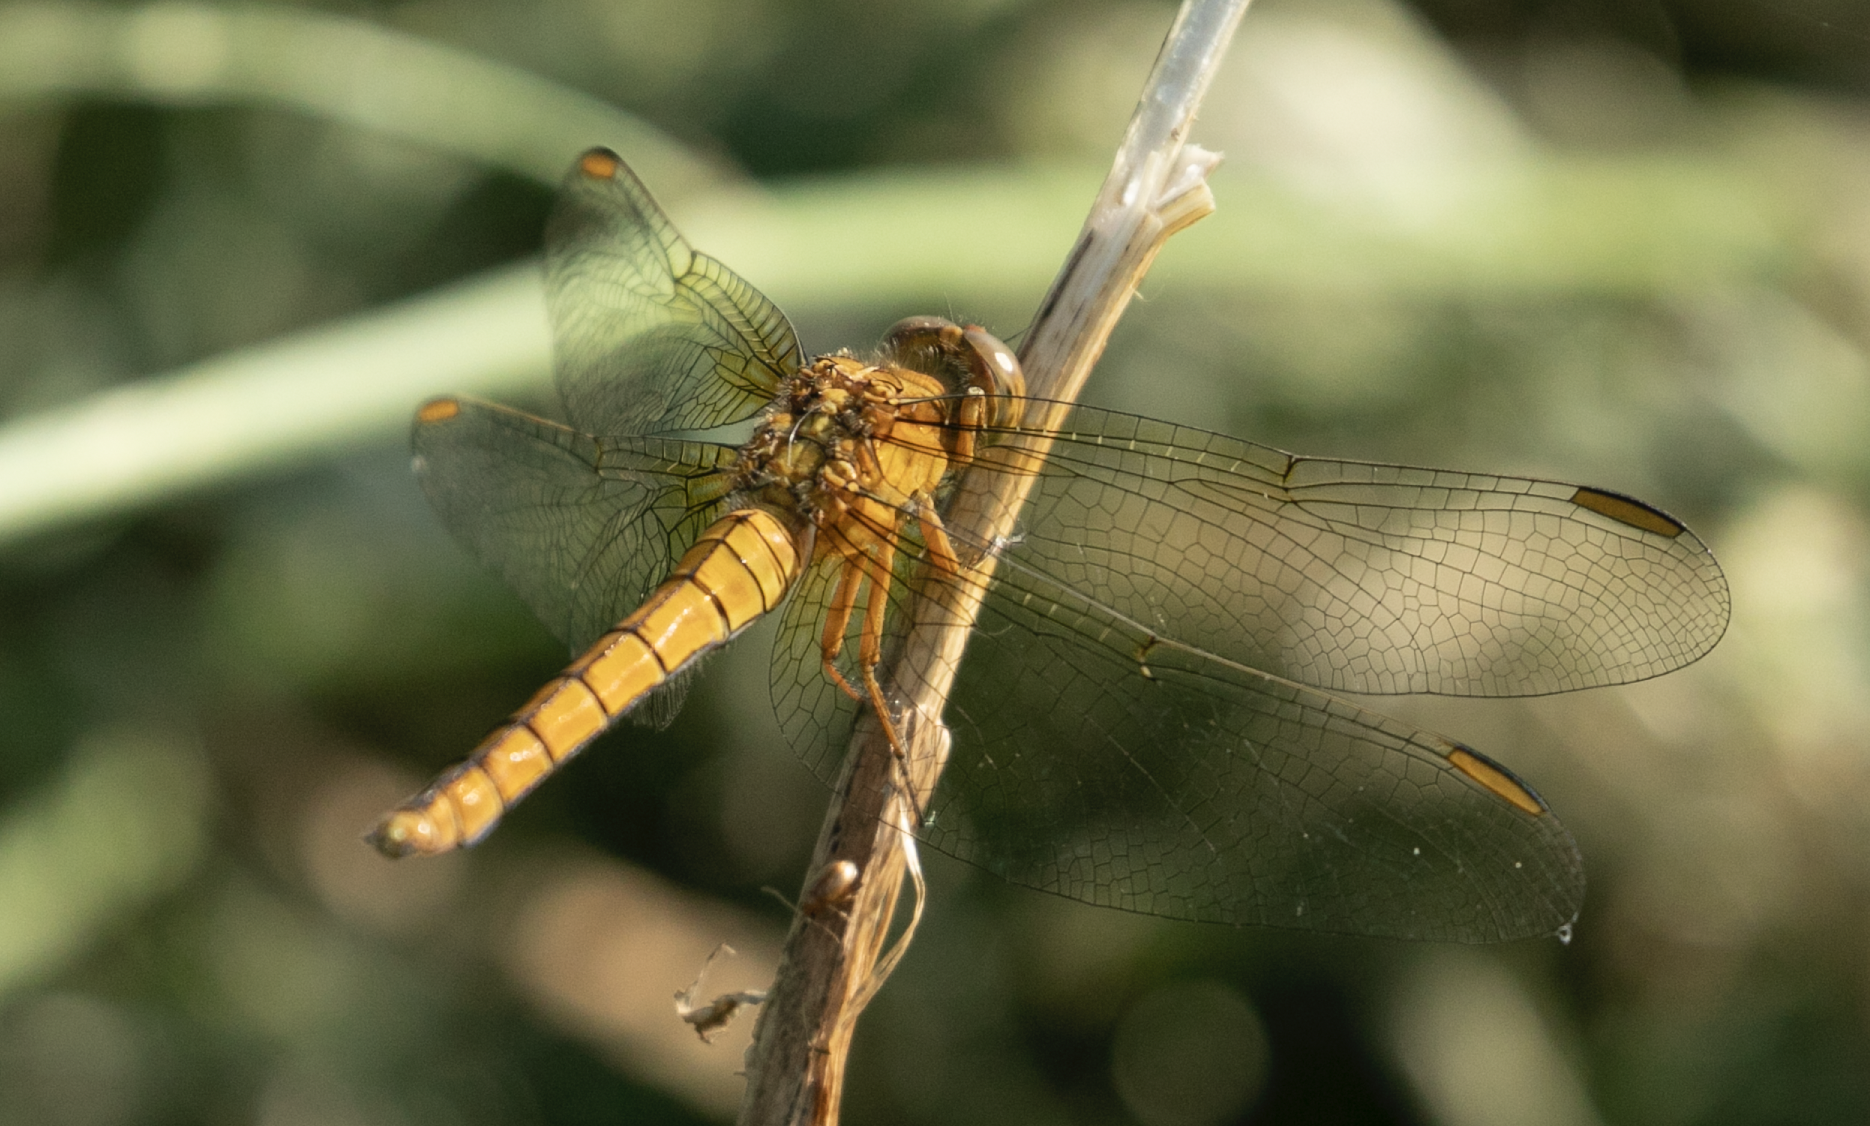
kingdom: Animalia
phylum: Arthropoda
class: Insecta
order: Odonata
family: Libellulidae
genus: Orthetrum
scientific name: Orthetrum coerulescens
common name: Keeled skimmer
